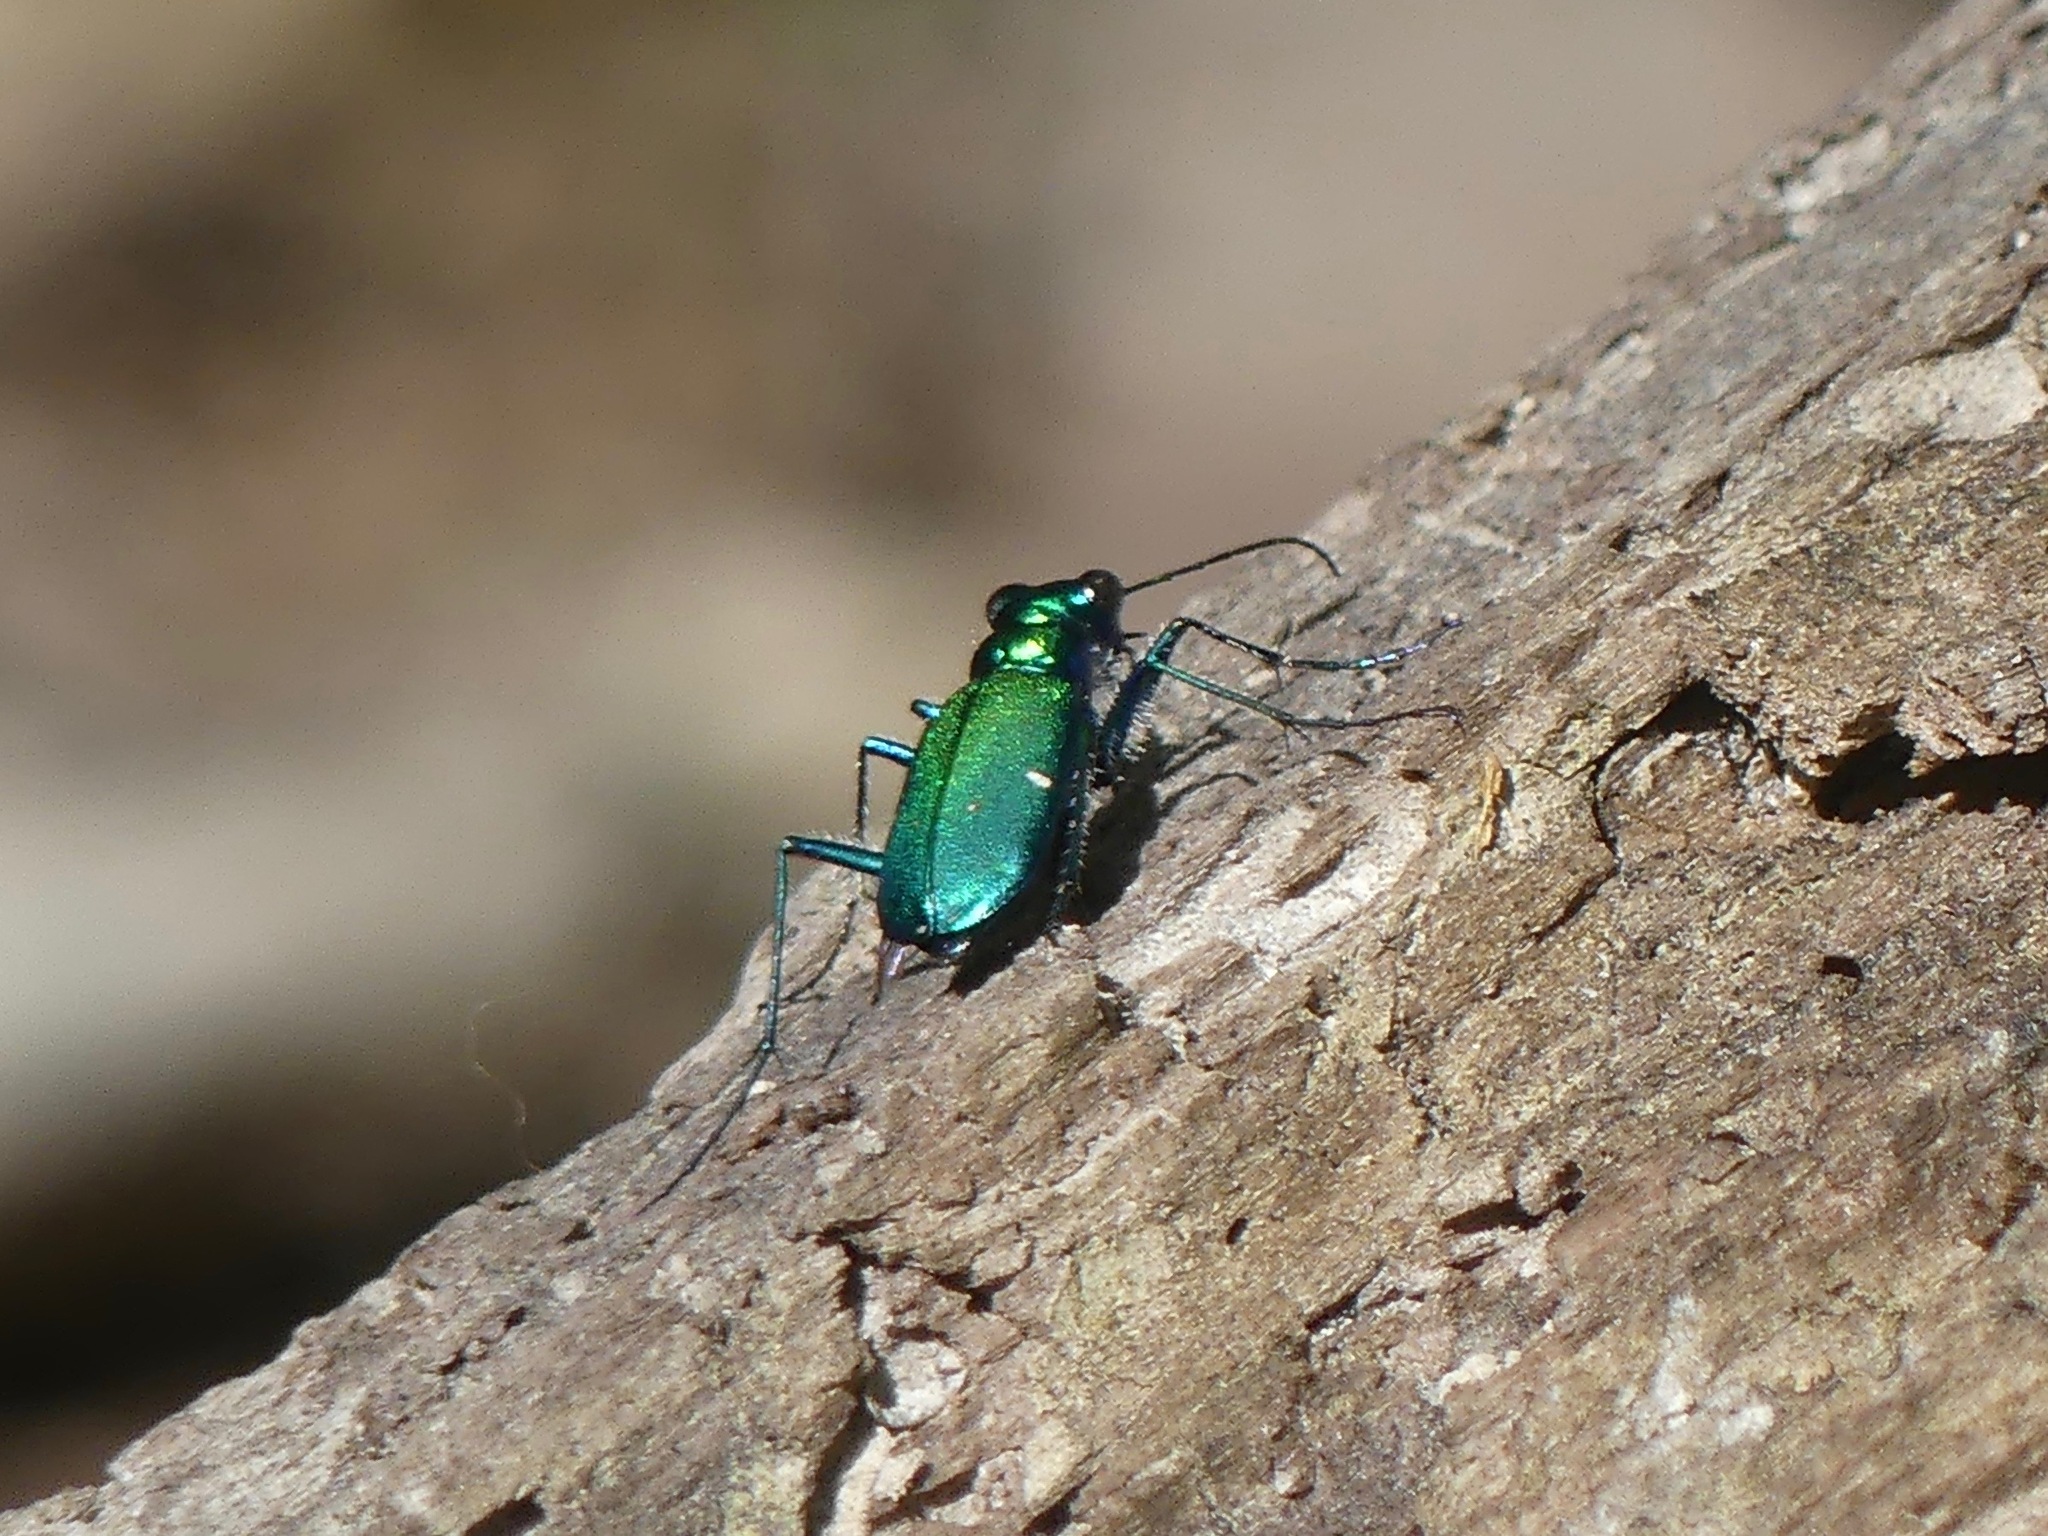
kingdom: Animalia
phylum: Arthropoda
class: Insecta
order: Coleoptera
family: Carabidae
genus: Cicindela
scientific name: Cicindela sexguttata
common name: Six-spotted tiger beetle
